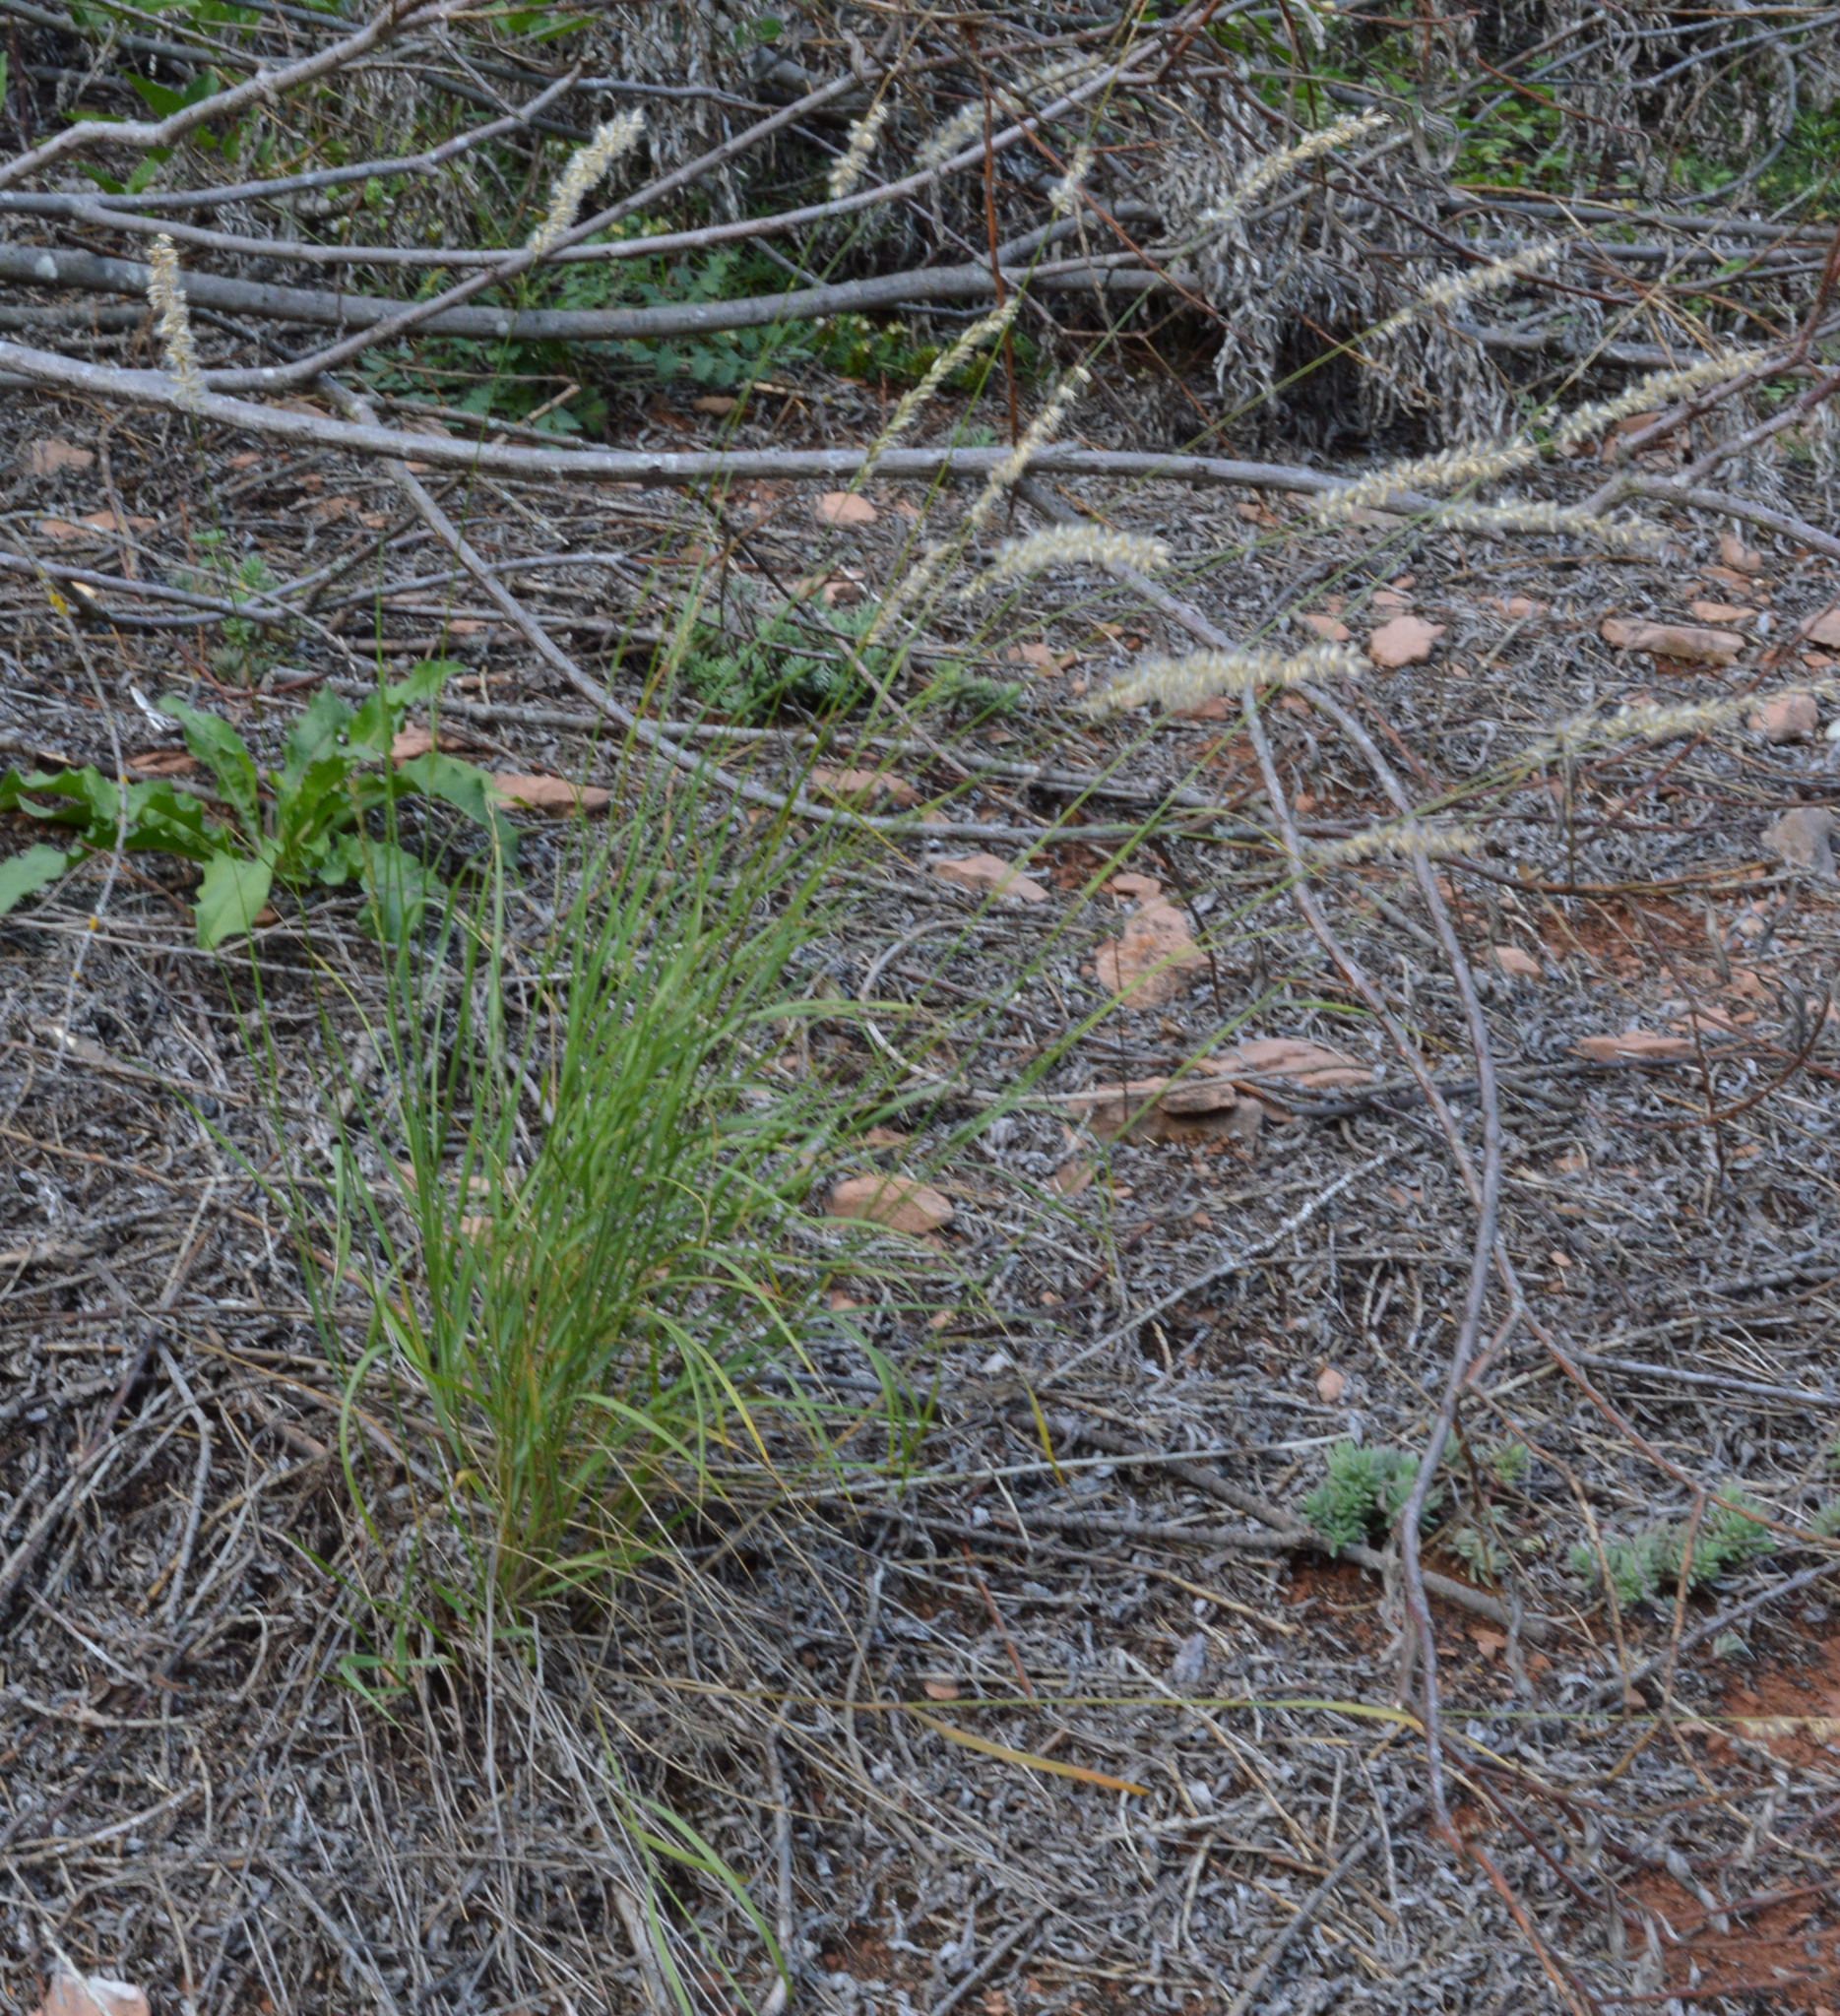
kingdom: Plantae
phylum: Tracheophyta
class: Liliopsida
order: Poales
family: Poaceae
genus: Melica
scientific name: Melica ciliata
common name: Hairy melicgrass
